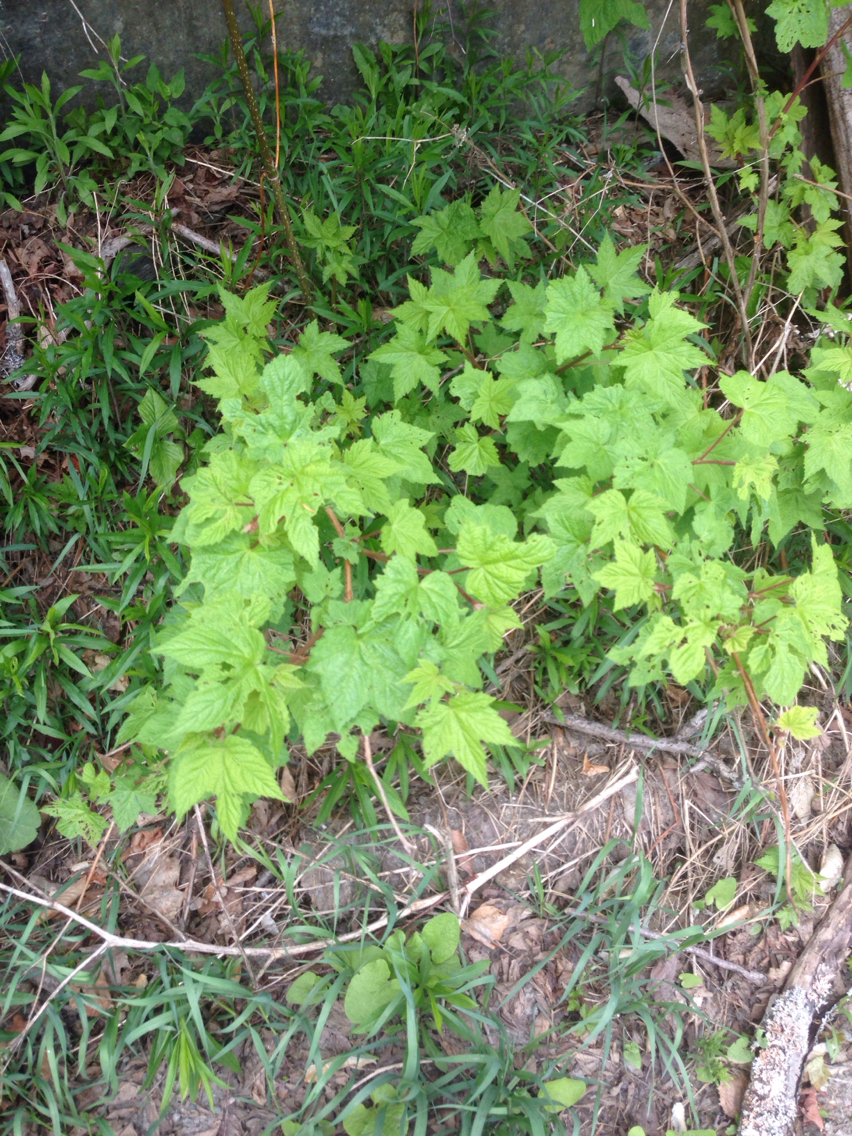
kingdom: Plantae
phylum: Tracheophyta
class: Magnoliopsida
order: Rosales
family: Rosaceae
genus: Rubus
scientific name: Rubus odoratus
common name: Purple-flowered raspberry
